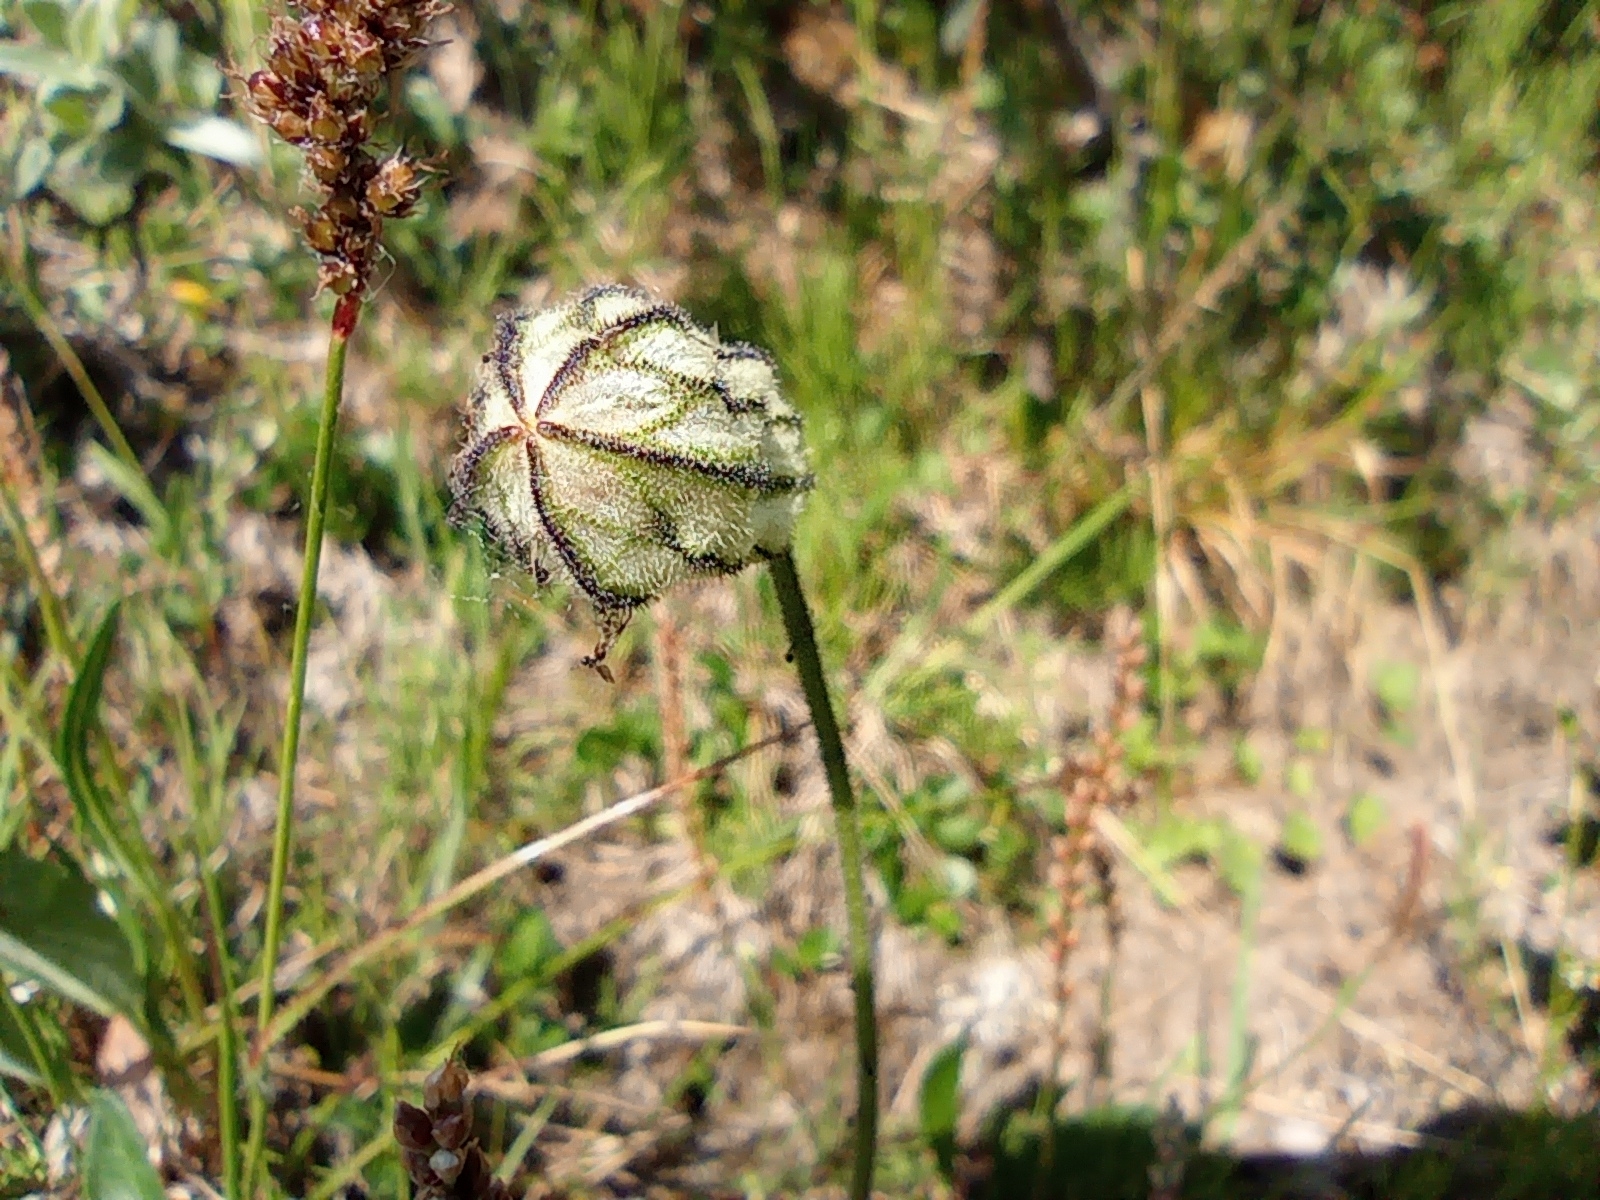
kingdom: Plantae
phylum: Tracheophyta
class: Magnoliopsida
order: Caryophyllales
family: Caryophyllaceae
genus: Silene
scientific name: Silene wahlbergella
